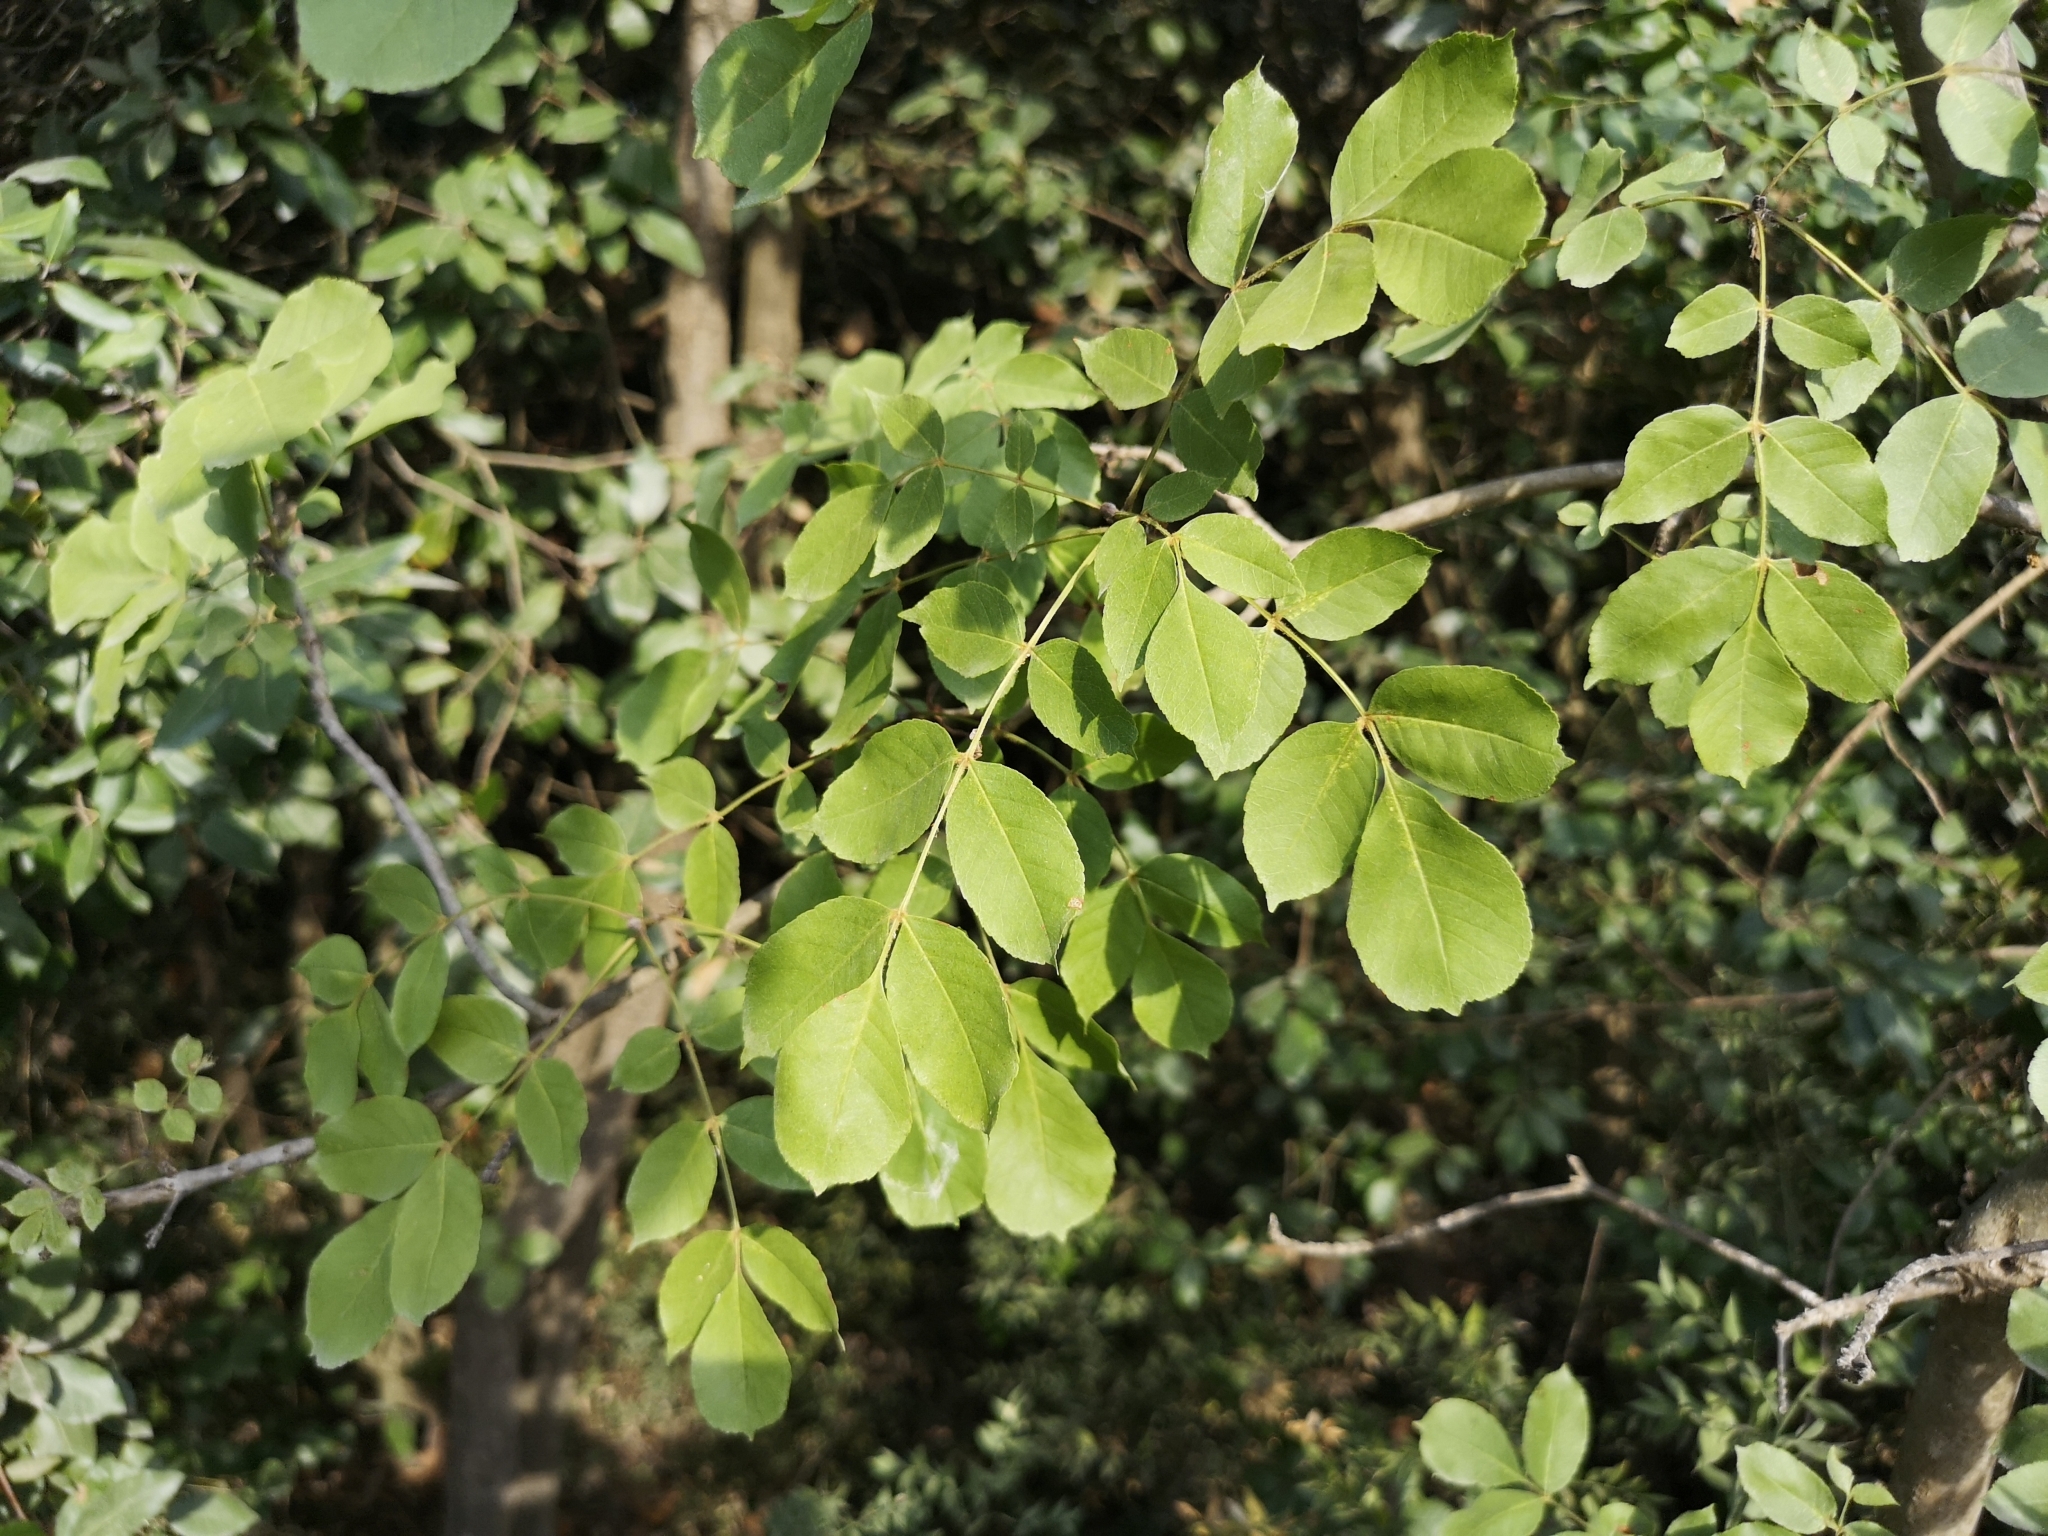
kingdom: Plantae
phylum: Tracheophyta
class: Magnoliopsida
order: Lamiales
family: Oleaceae
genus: Fraxinus
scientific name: Fraxinus ornus
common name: Manna ash
